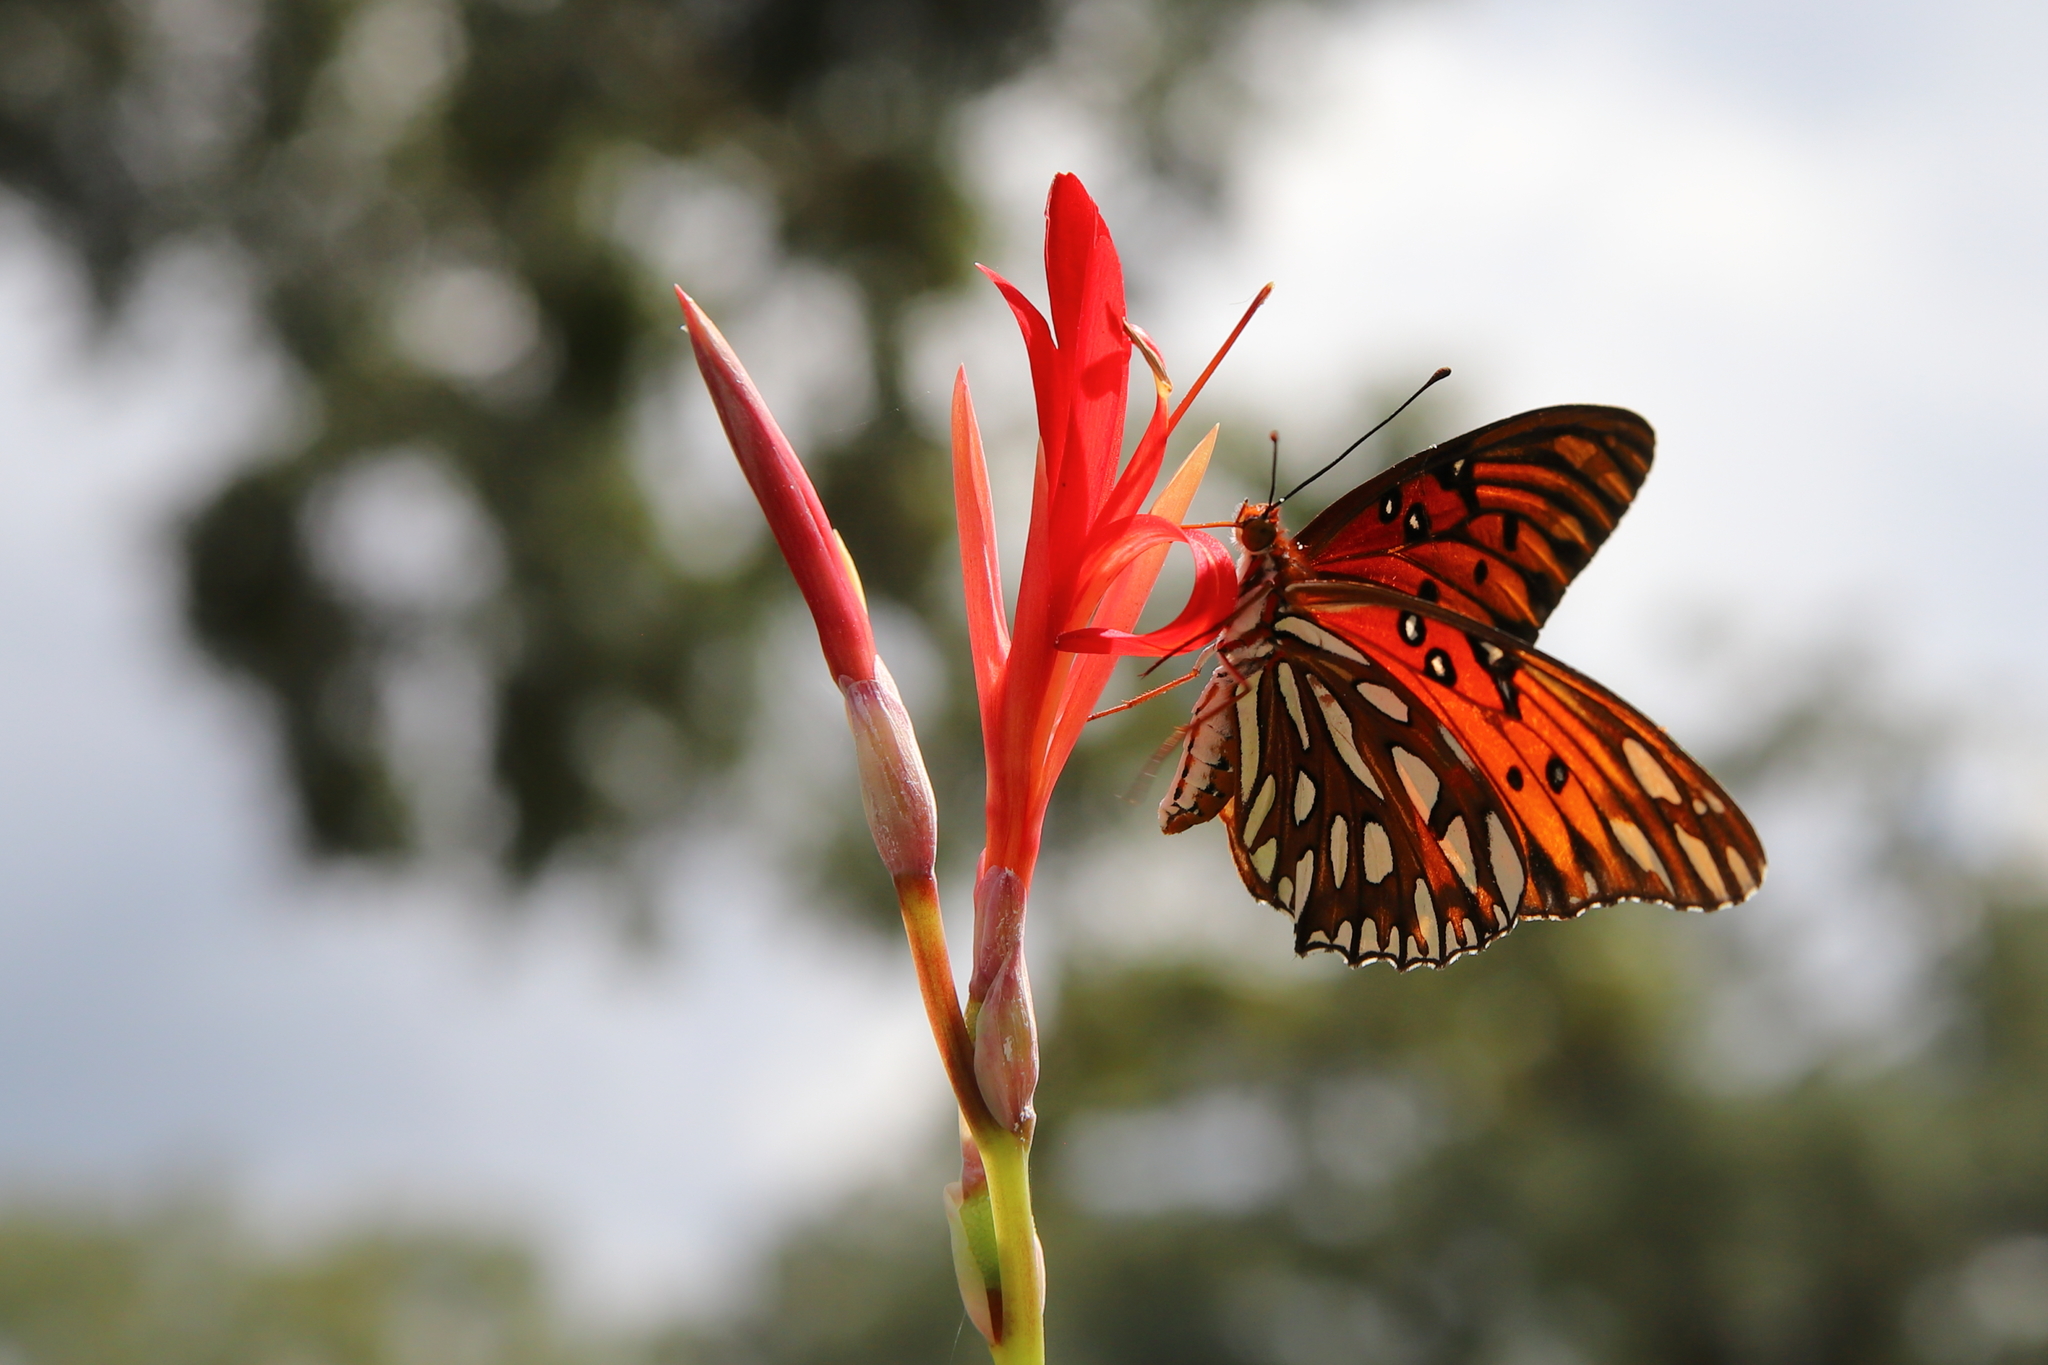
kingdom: Animalia
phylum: Arthropoda
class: Insecta
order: Lepidoptera
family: Nymphalidae
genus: Dione
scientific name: Dione vanillae
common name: Gulf fritillary
